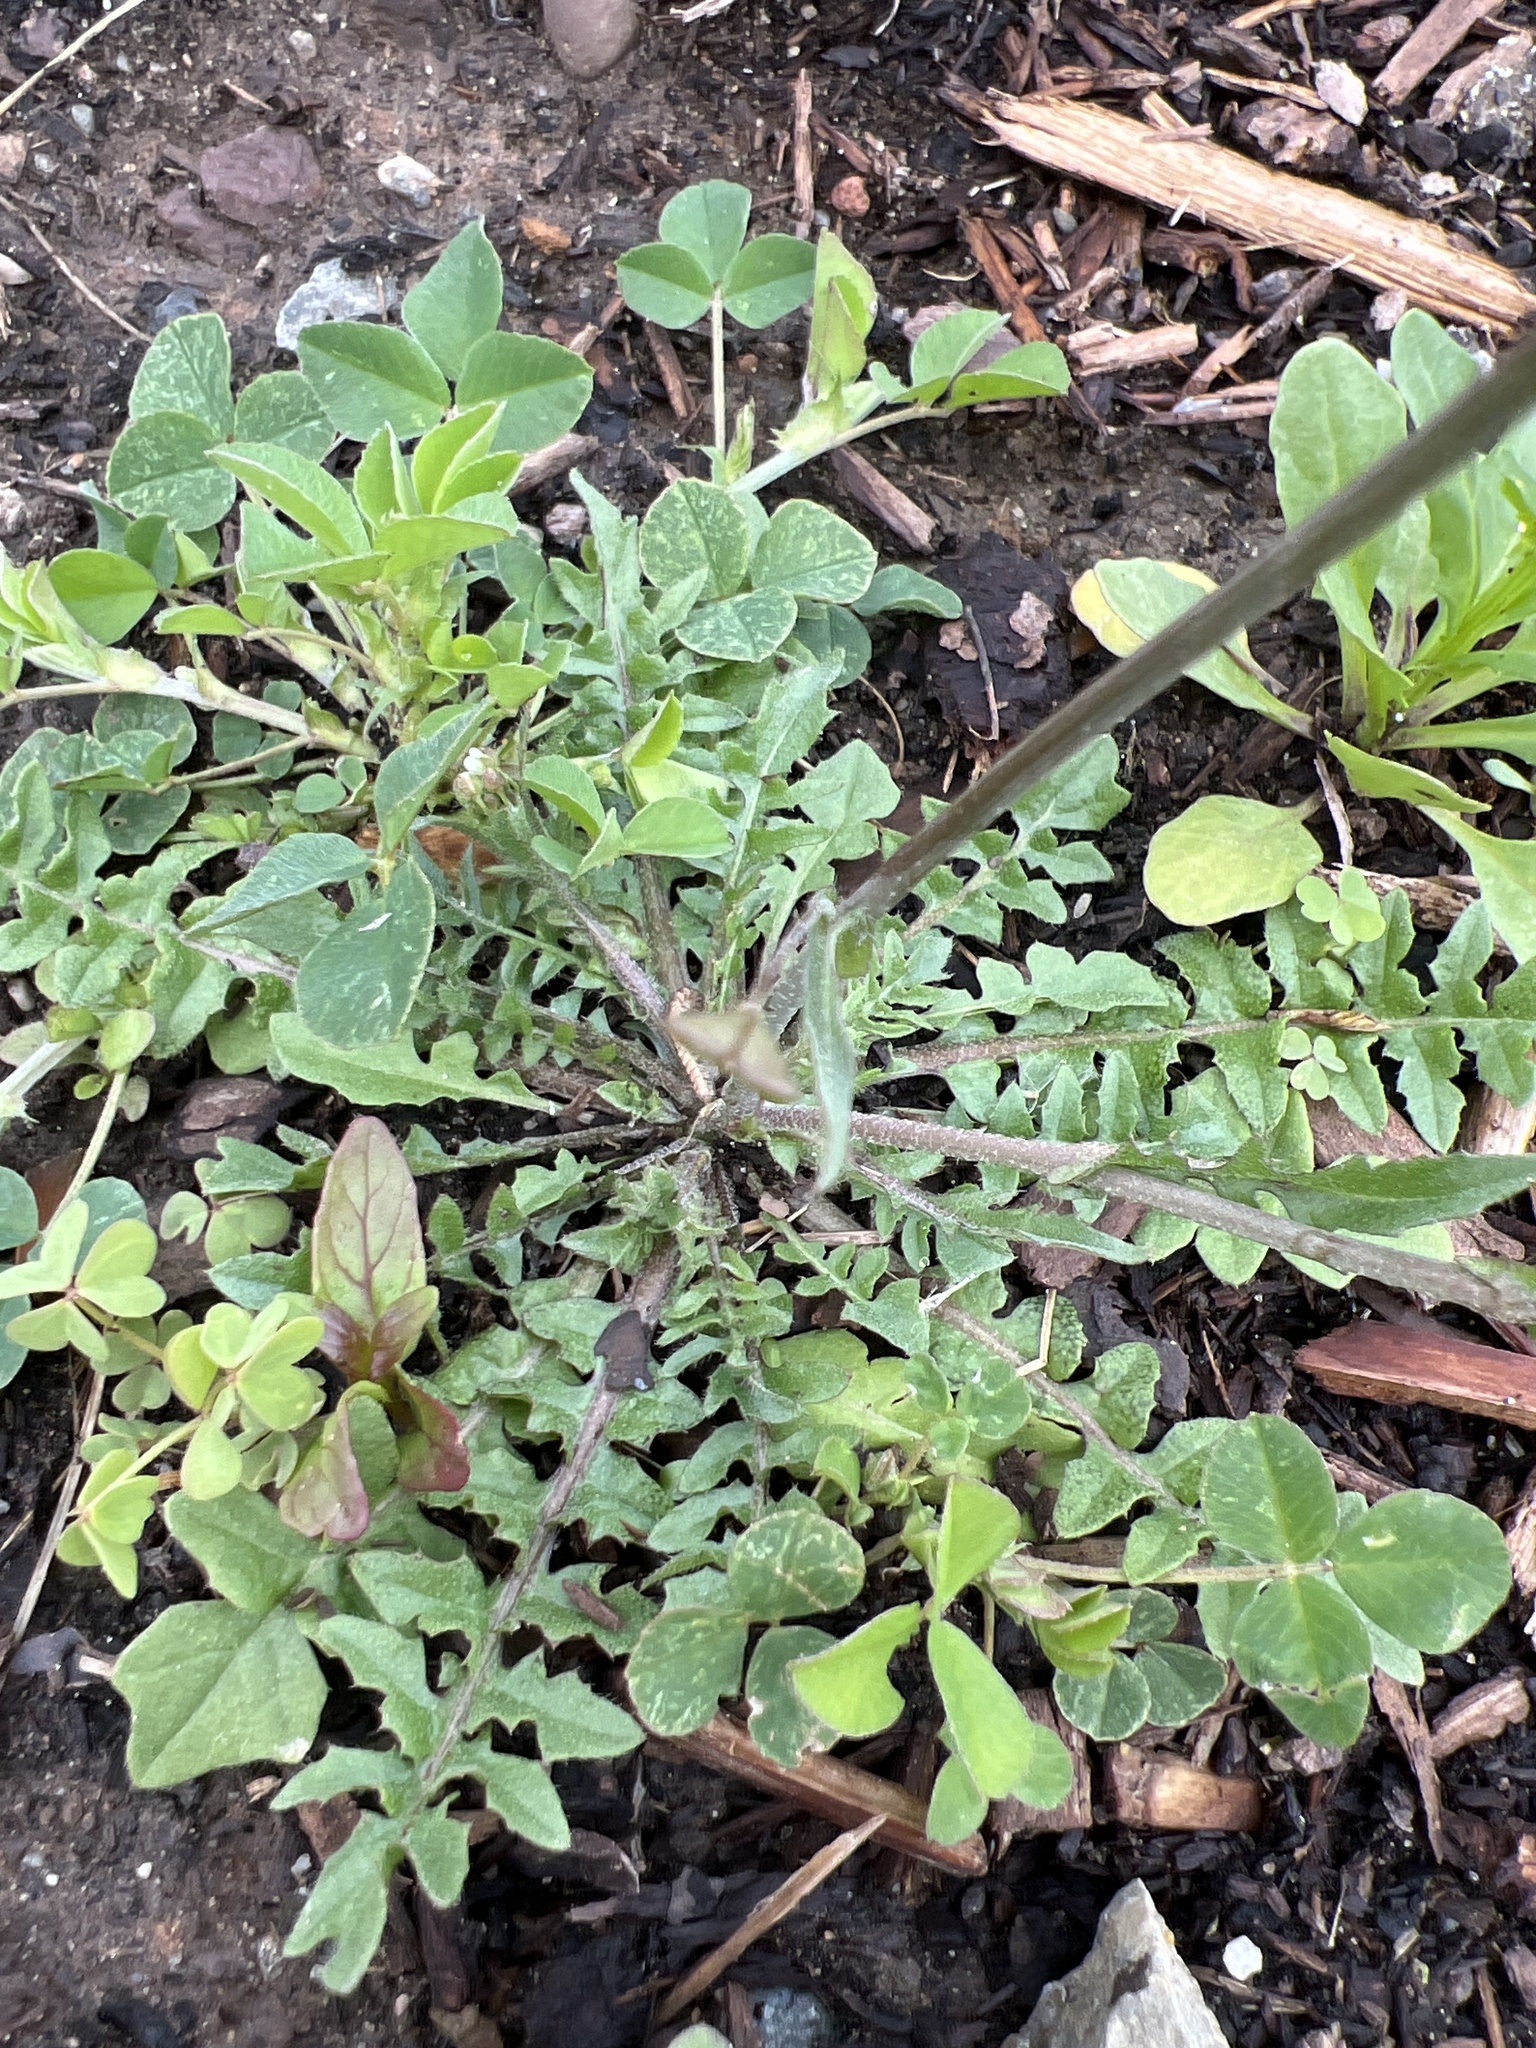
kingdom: Plantae
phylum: Tracheophyta
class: Magnoliopsida
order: Brassicales
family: Brassicaceae
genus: Capsella
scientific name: Capsella bursa-pastoris
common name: Shepherd's purse
